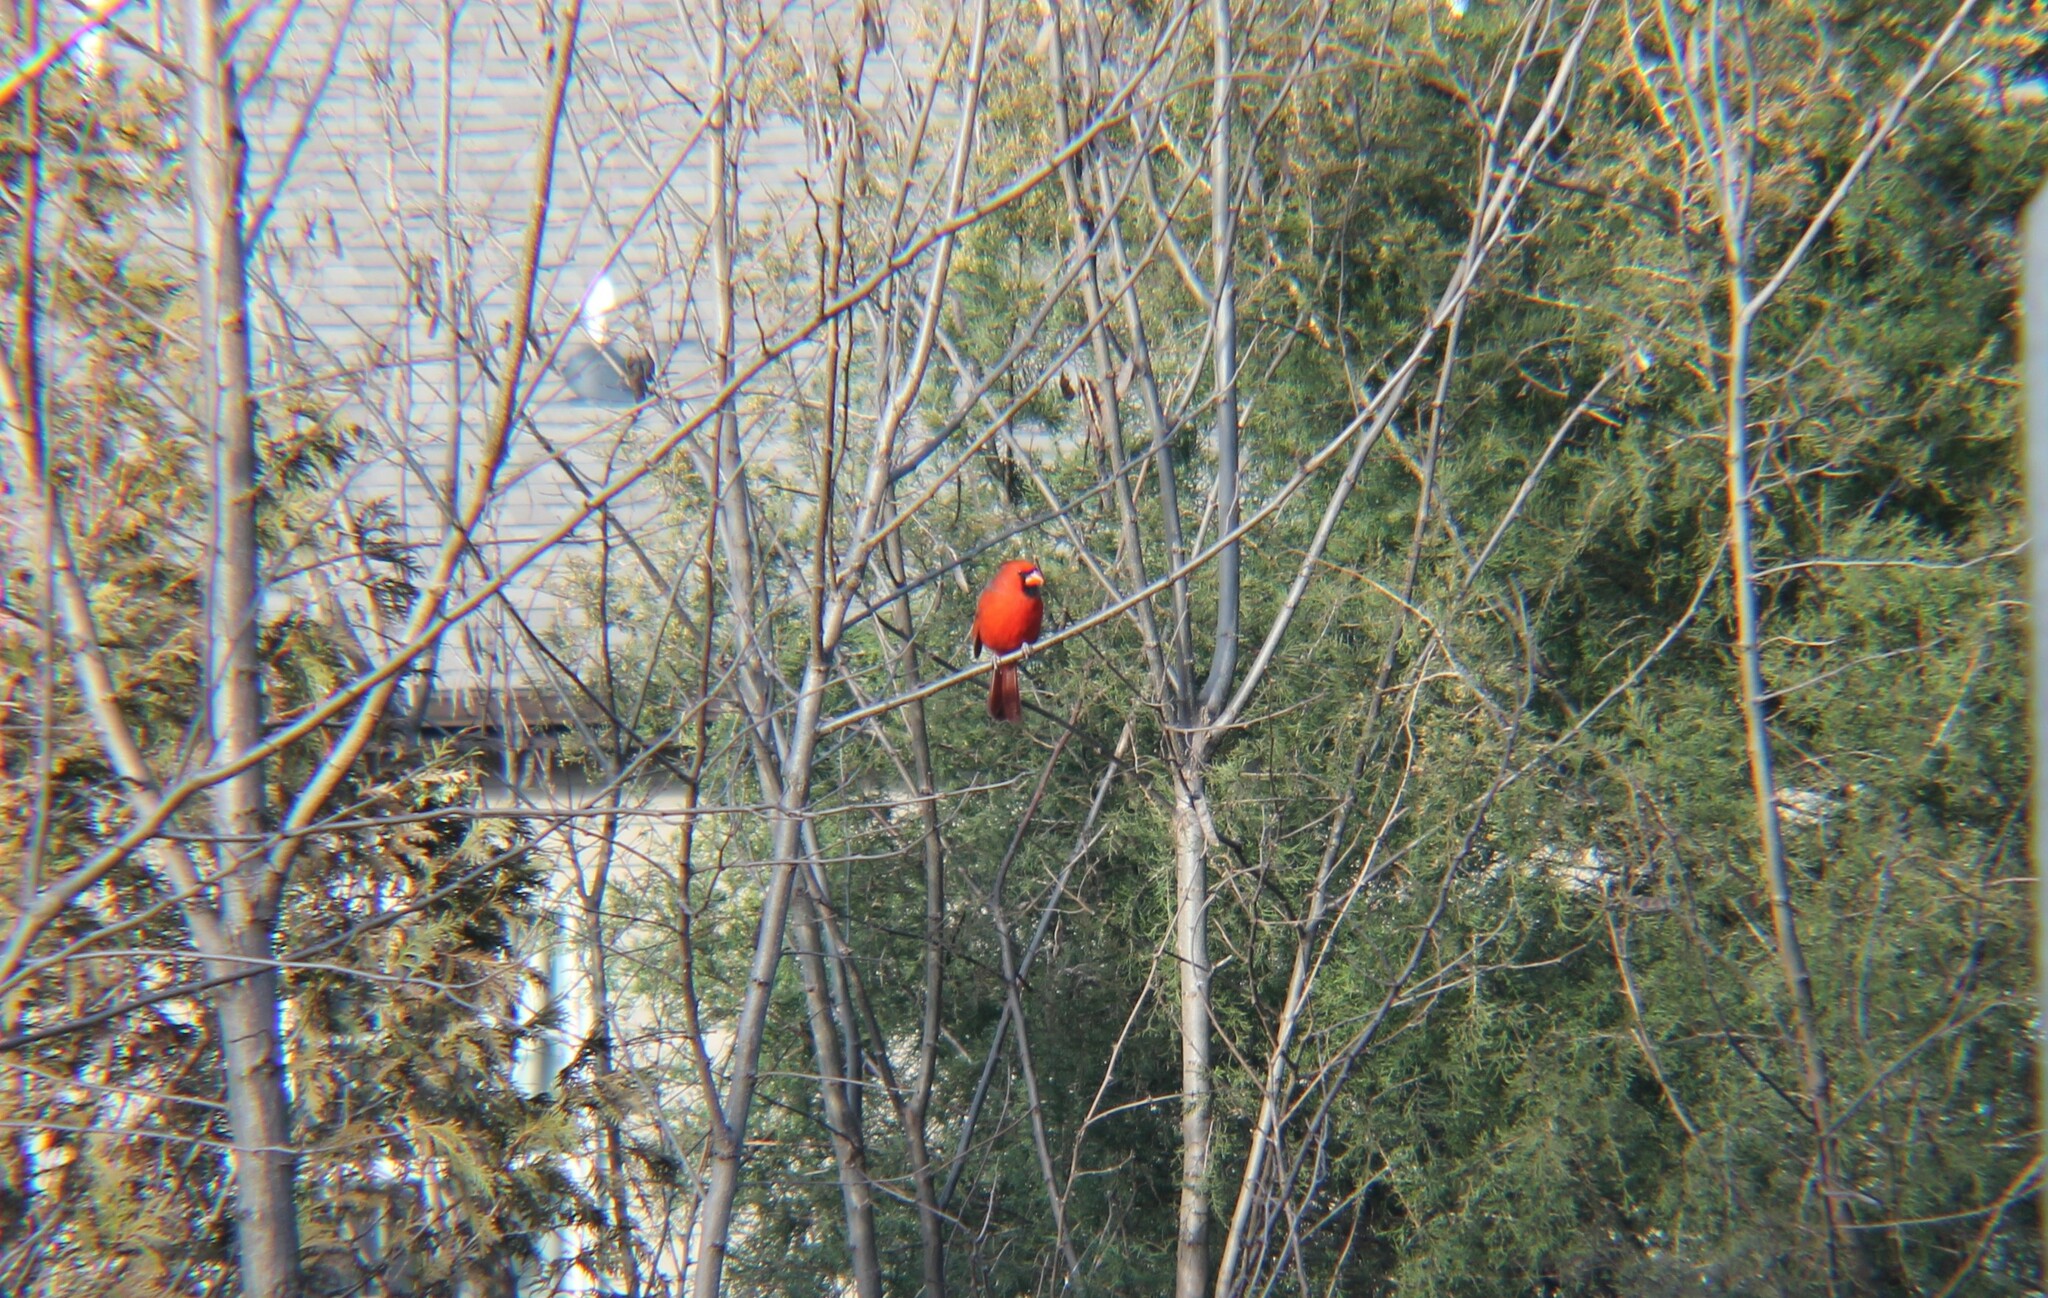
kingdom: Animalia
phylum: Chordata
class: Aves
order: Passeriformes
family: Cardinalidae
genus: Cardinalis
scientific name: Cardinalis cardinalis
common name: Northern cardinal
